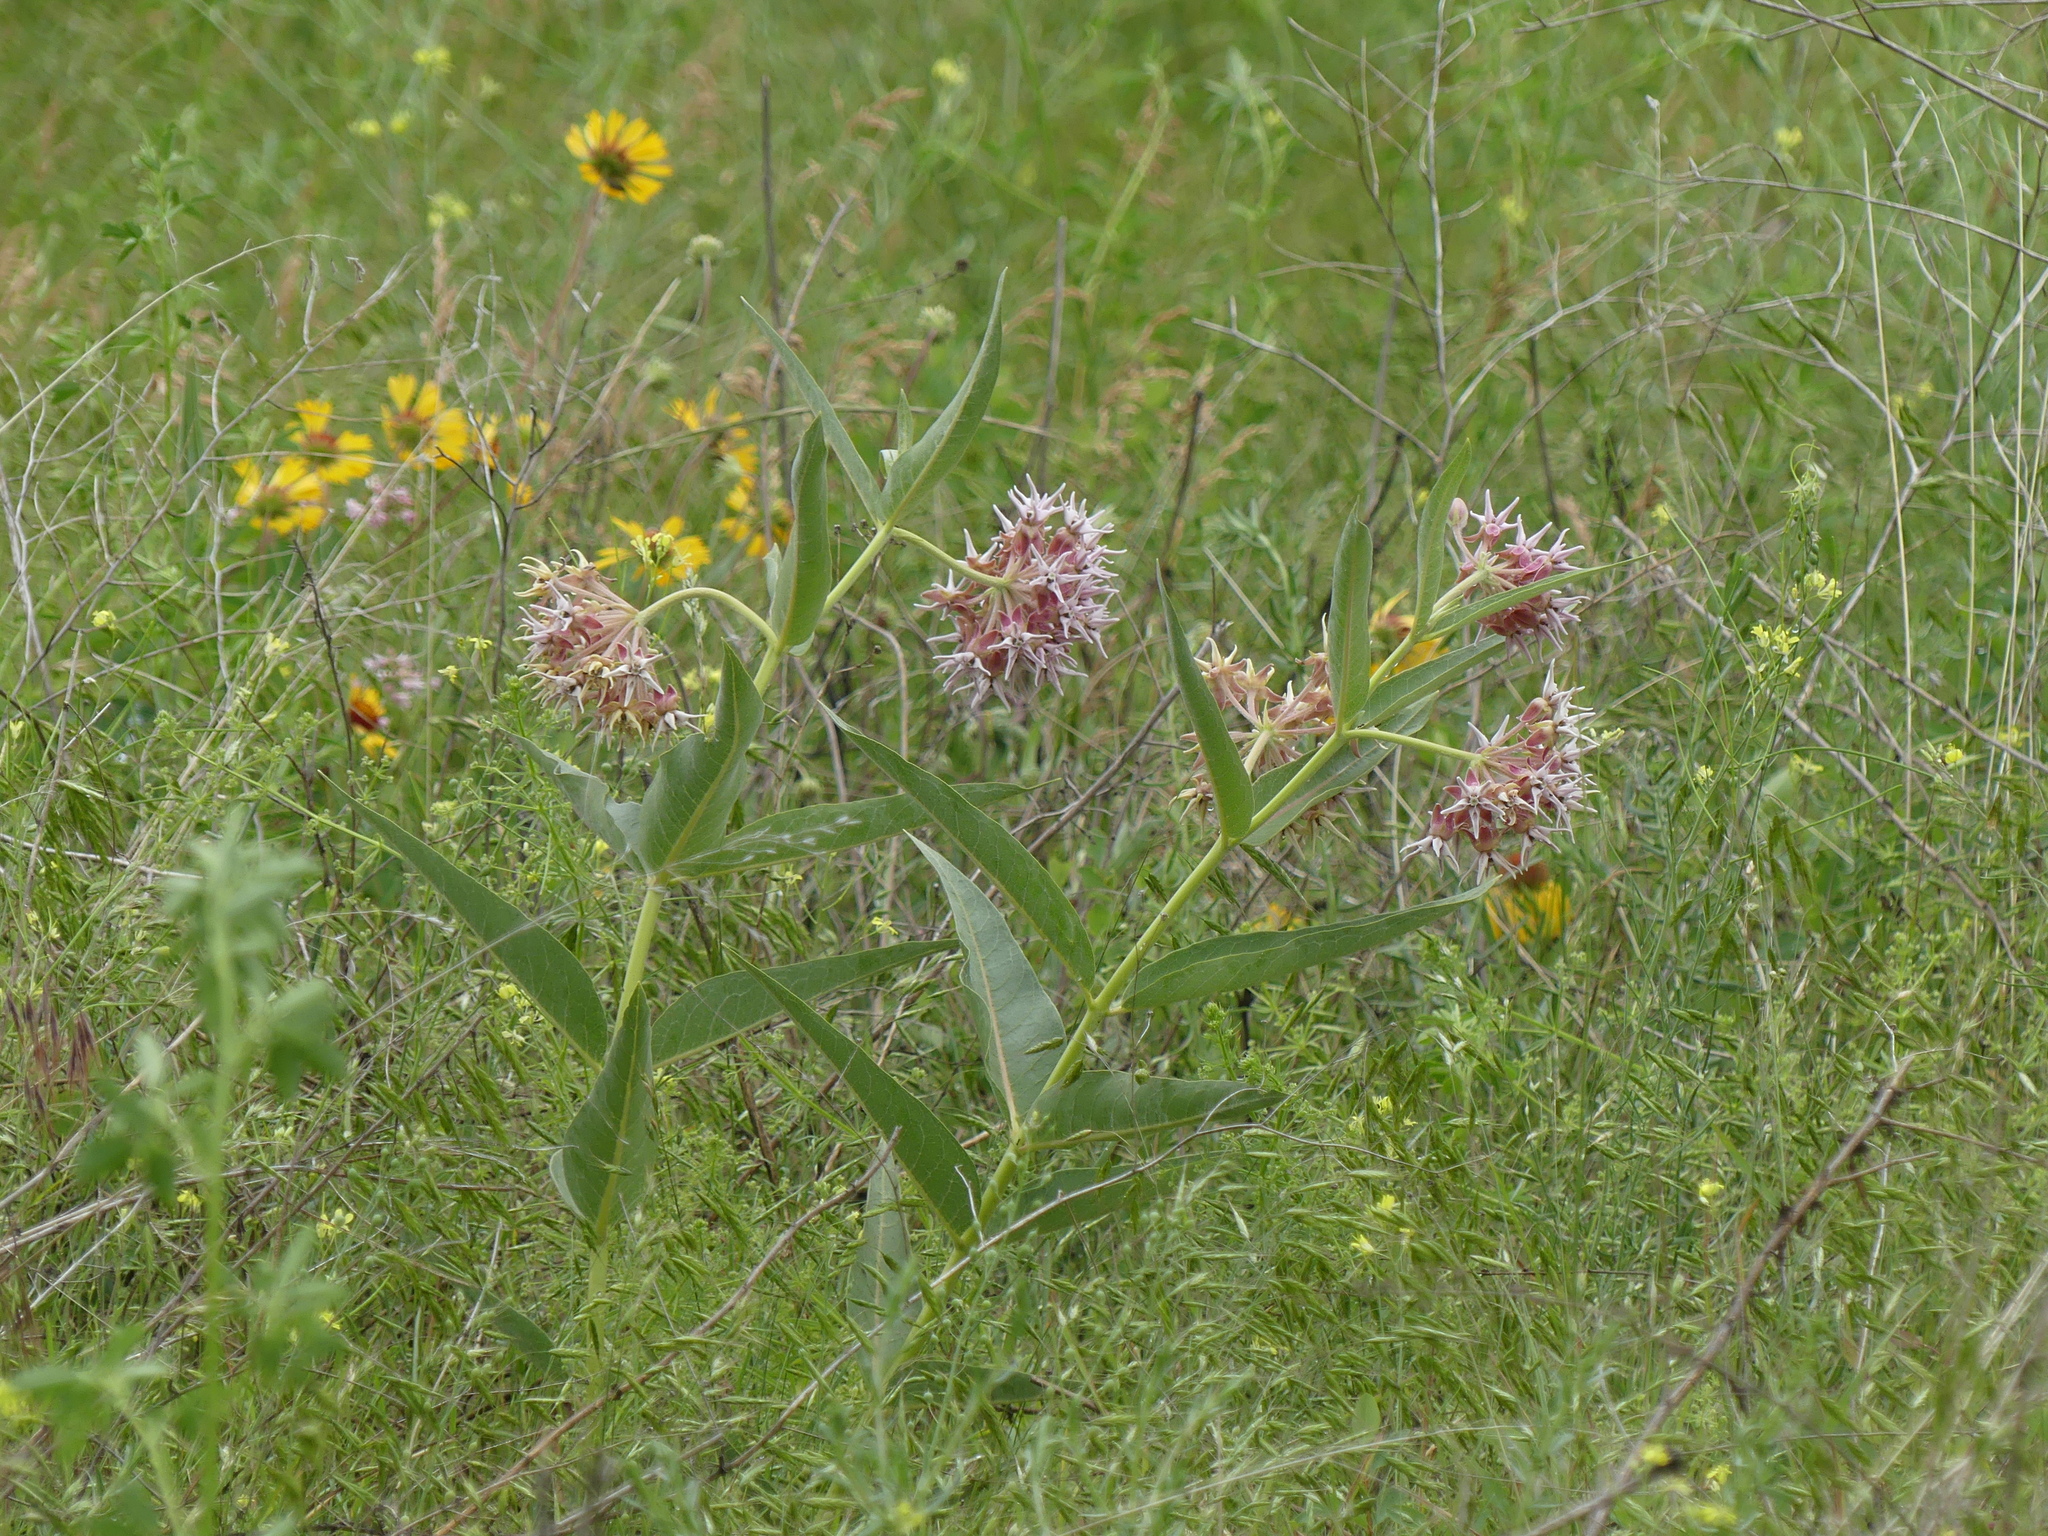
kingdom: Plantae
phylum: Tracheophyta
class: Magnoliopsida
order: Gentianales
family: Apocynaceae
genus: Asclepias
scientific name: Asclepias speciosa
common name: Showy milkweed
